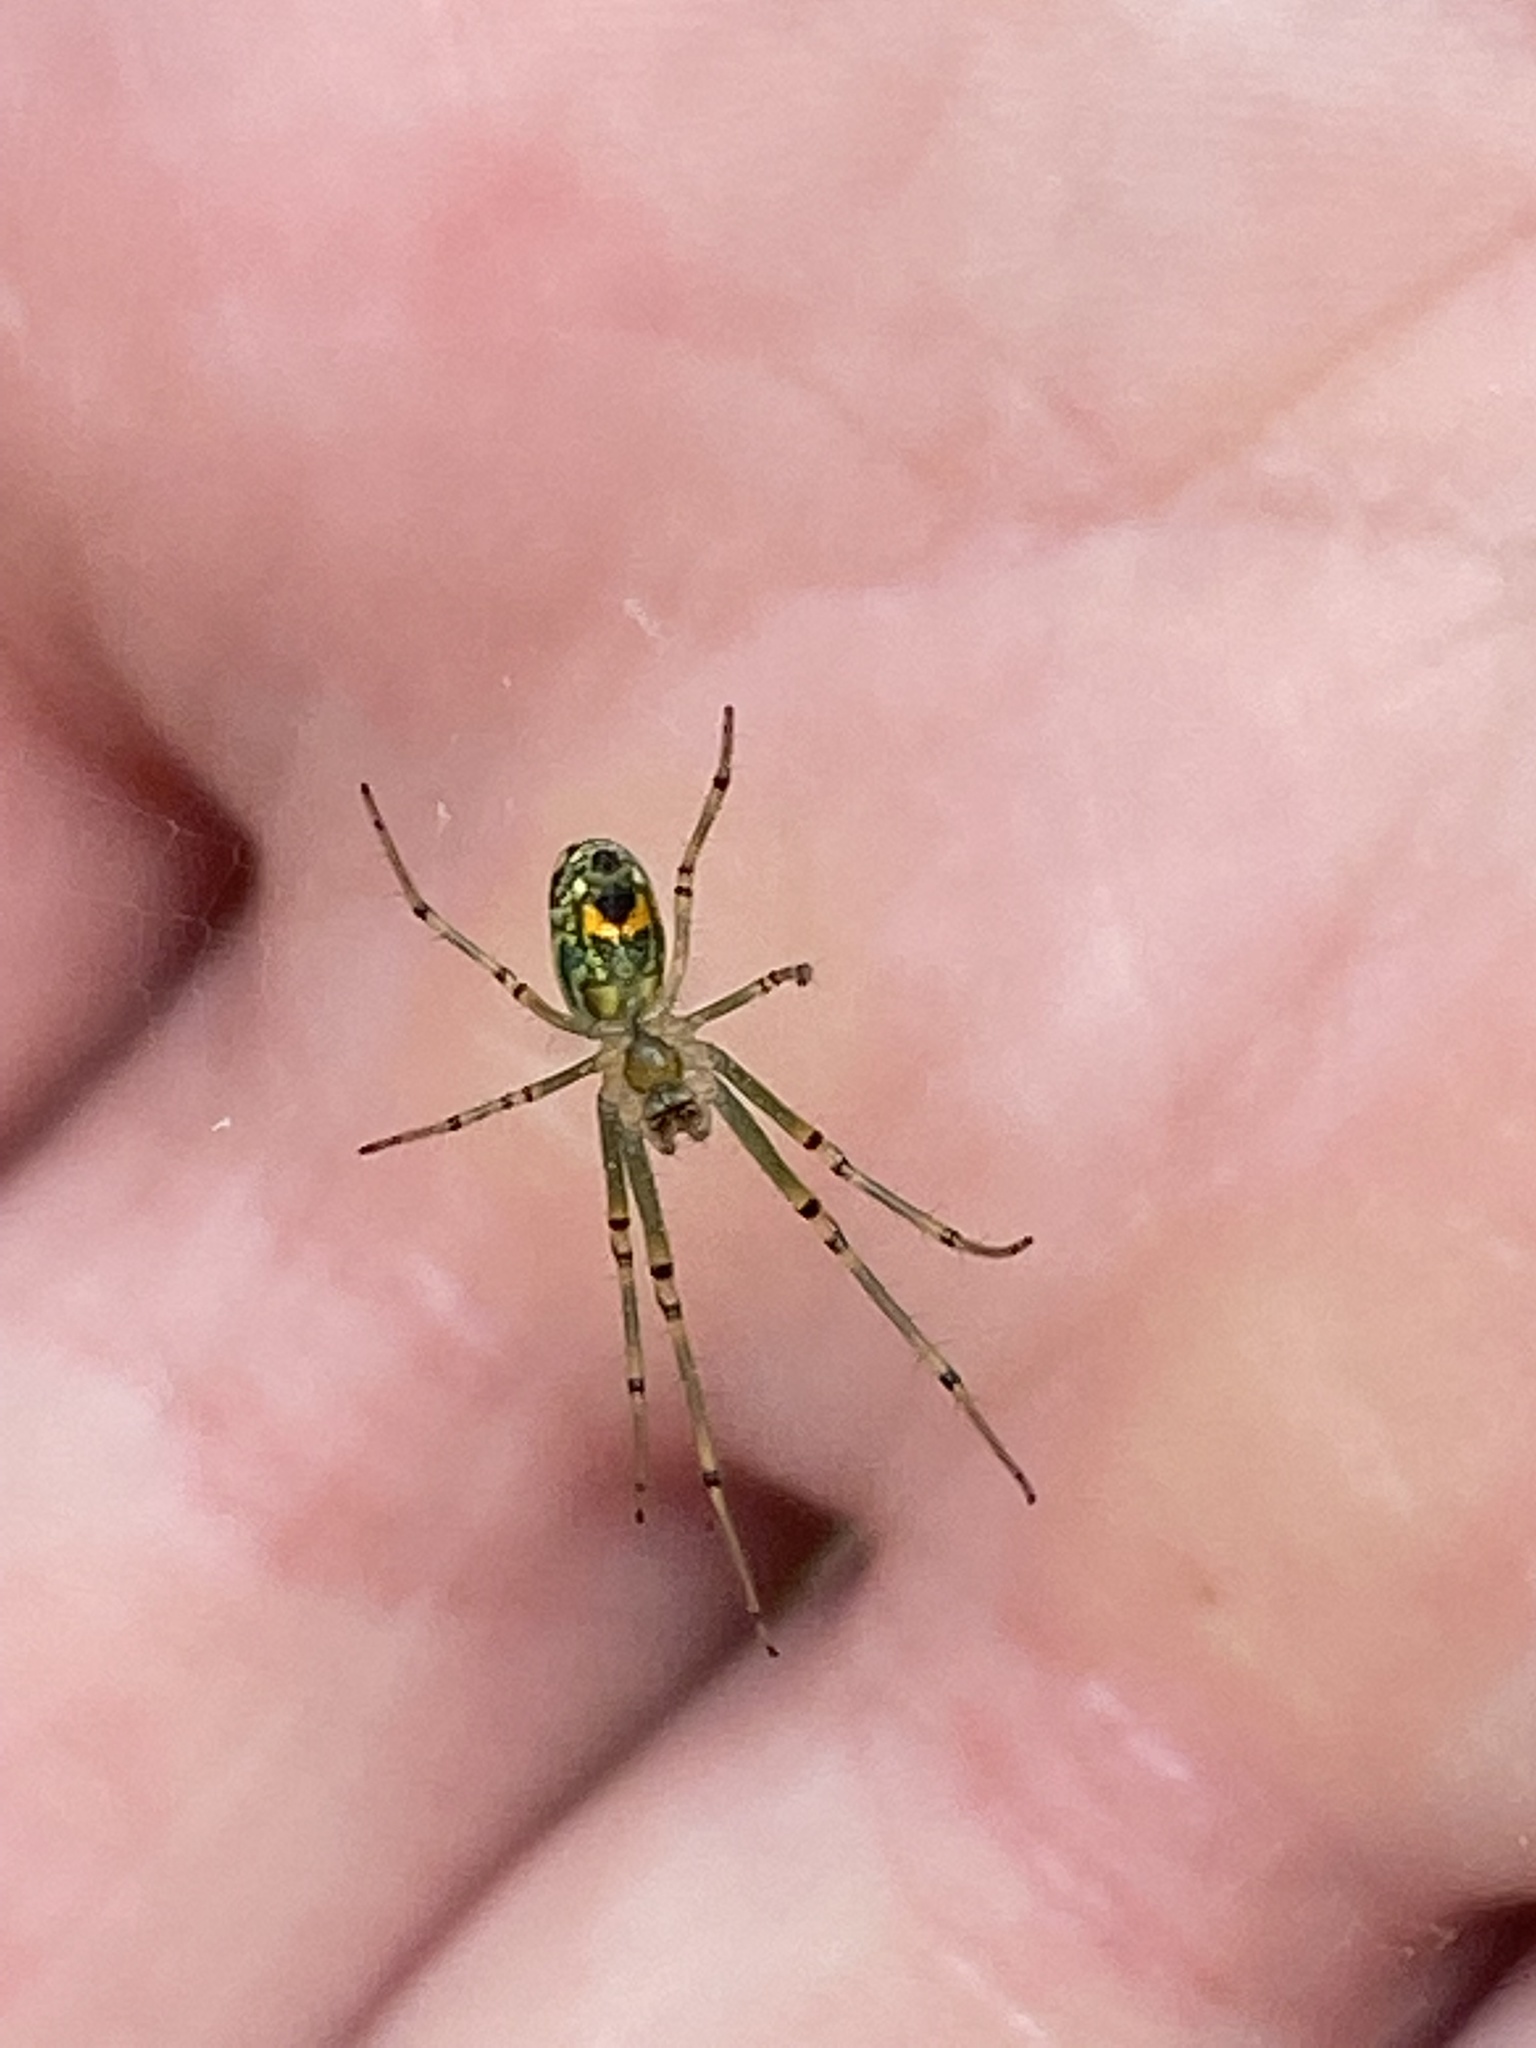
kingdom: Animalia
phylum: Arthropoda
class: Arachnida
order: Araneae
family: Tetragnathidae
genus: Leucauge
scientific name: Leucauge venusta
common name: Longjawed orb weavers
